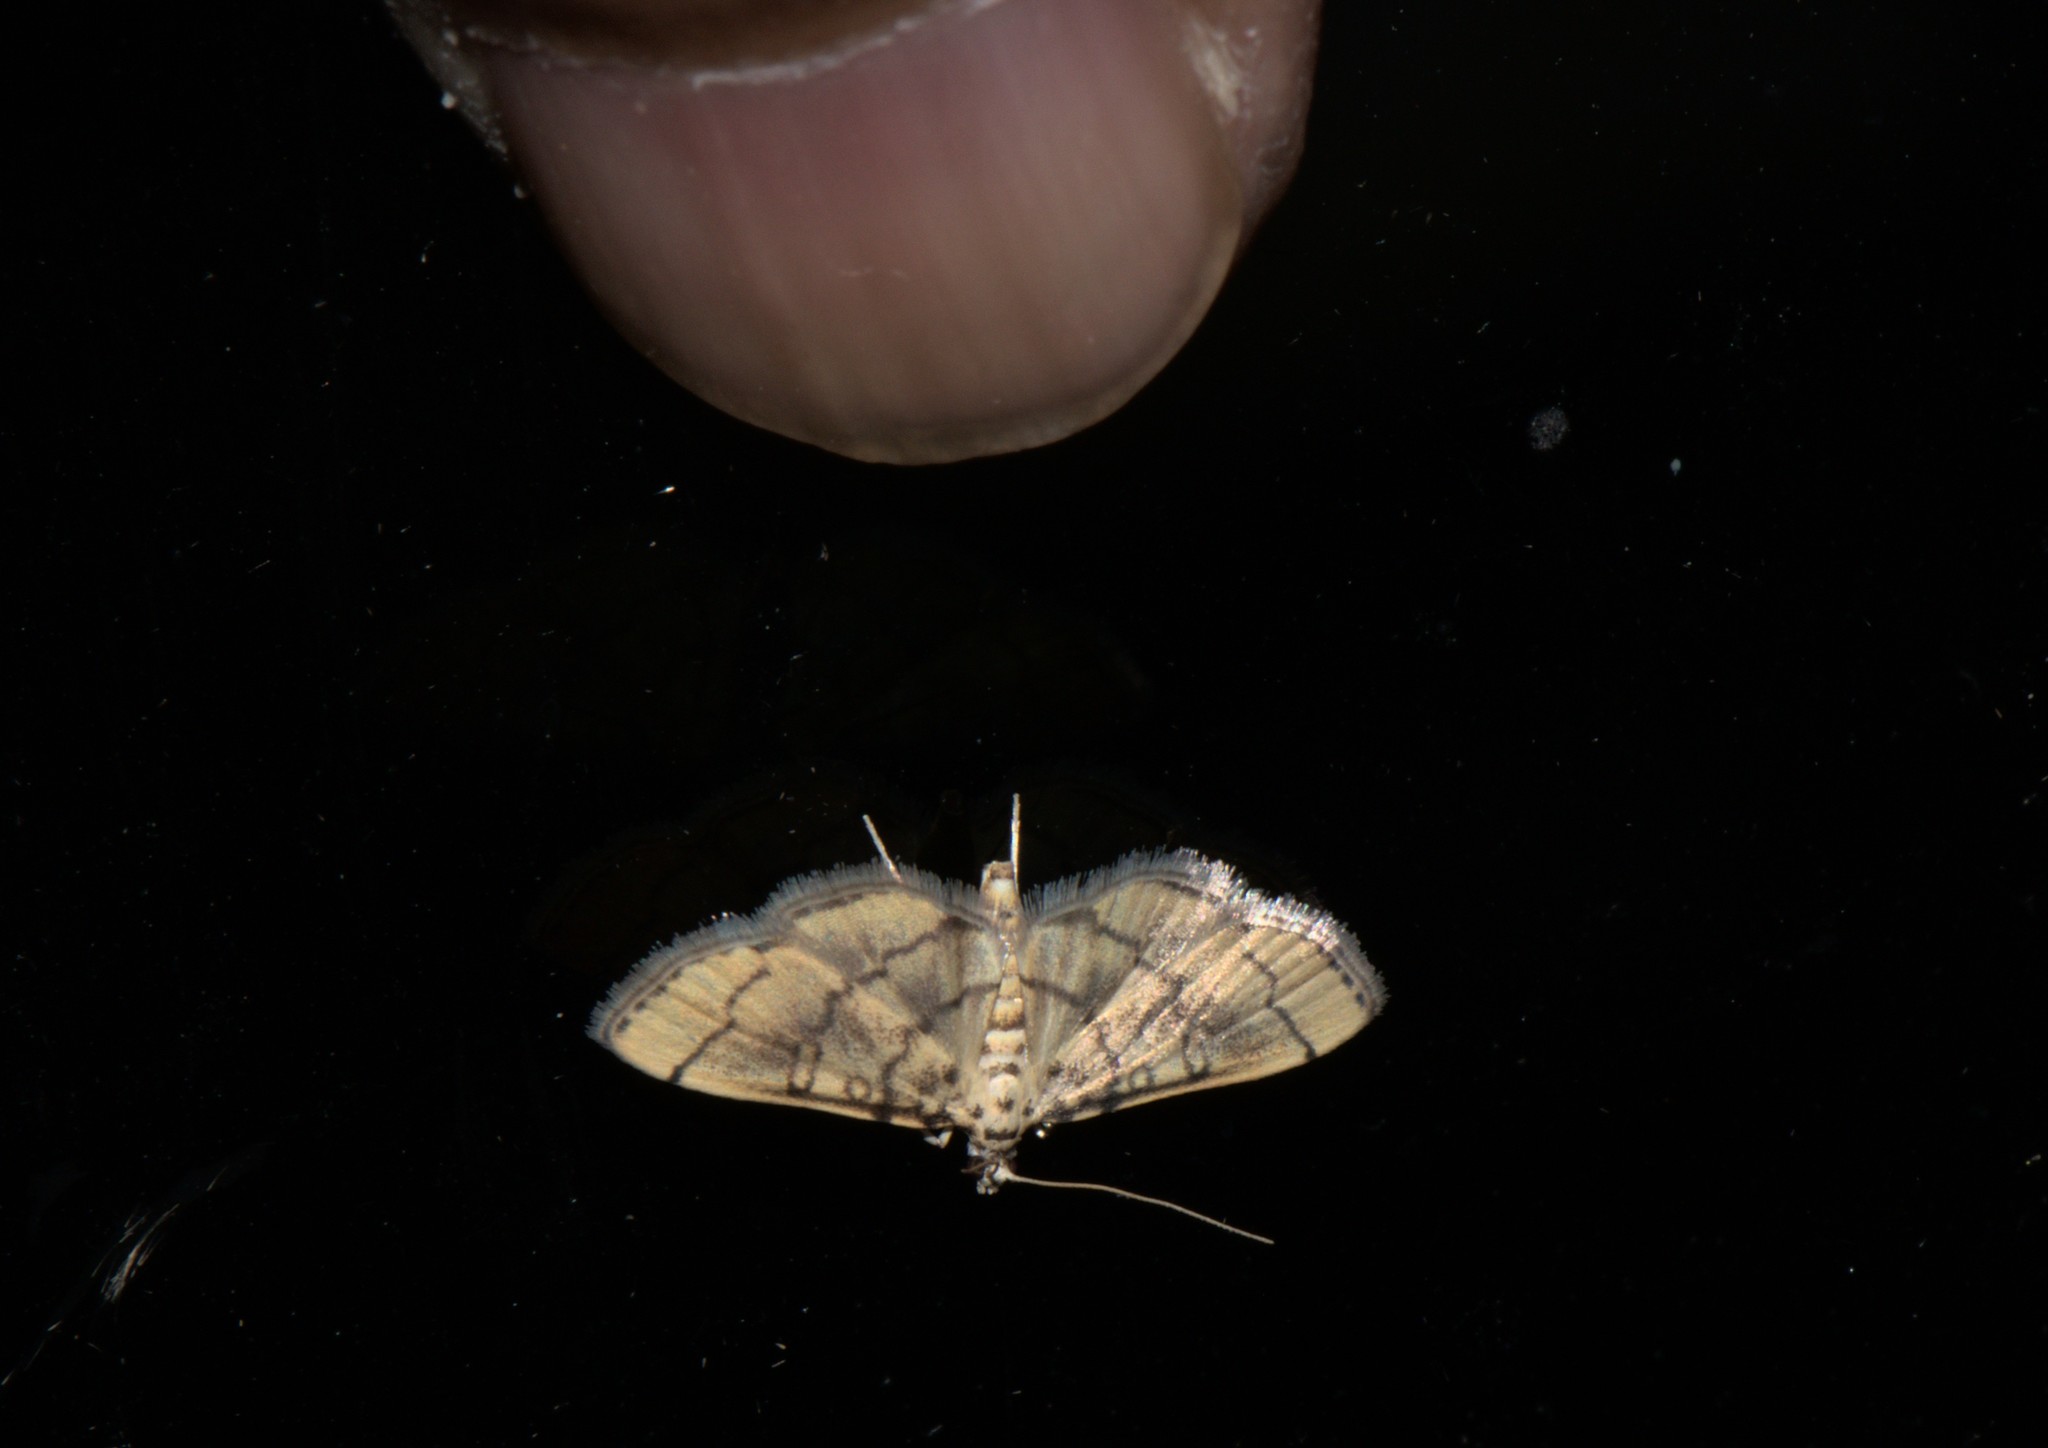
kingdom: Animalia
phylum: Arthropoda
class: Insecta
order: Lepidoptera
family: Crambidae
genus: Lamprosema
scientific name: Lamprosema tampiusalis
